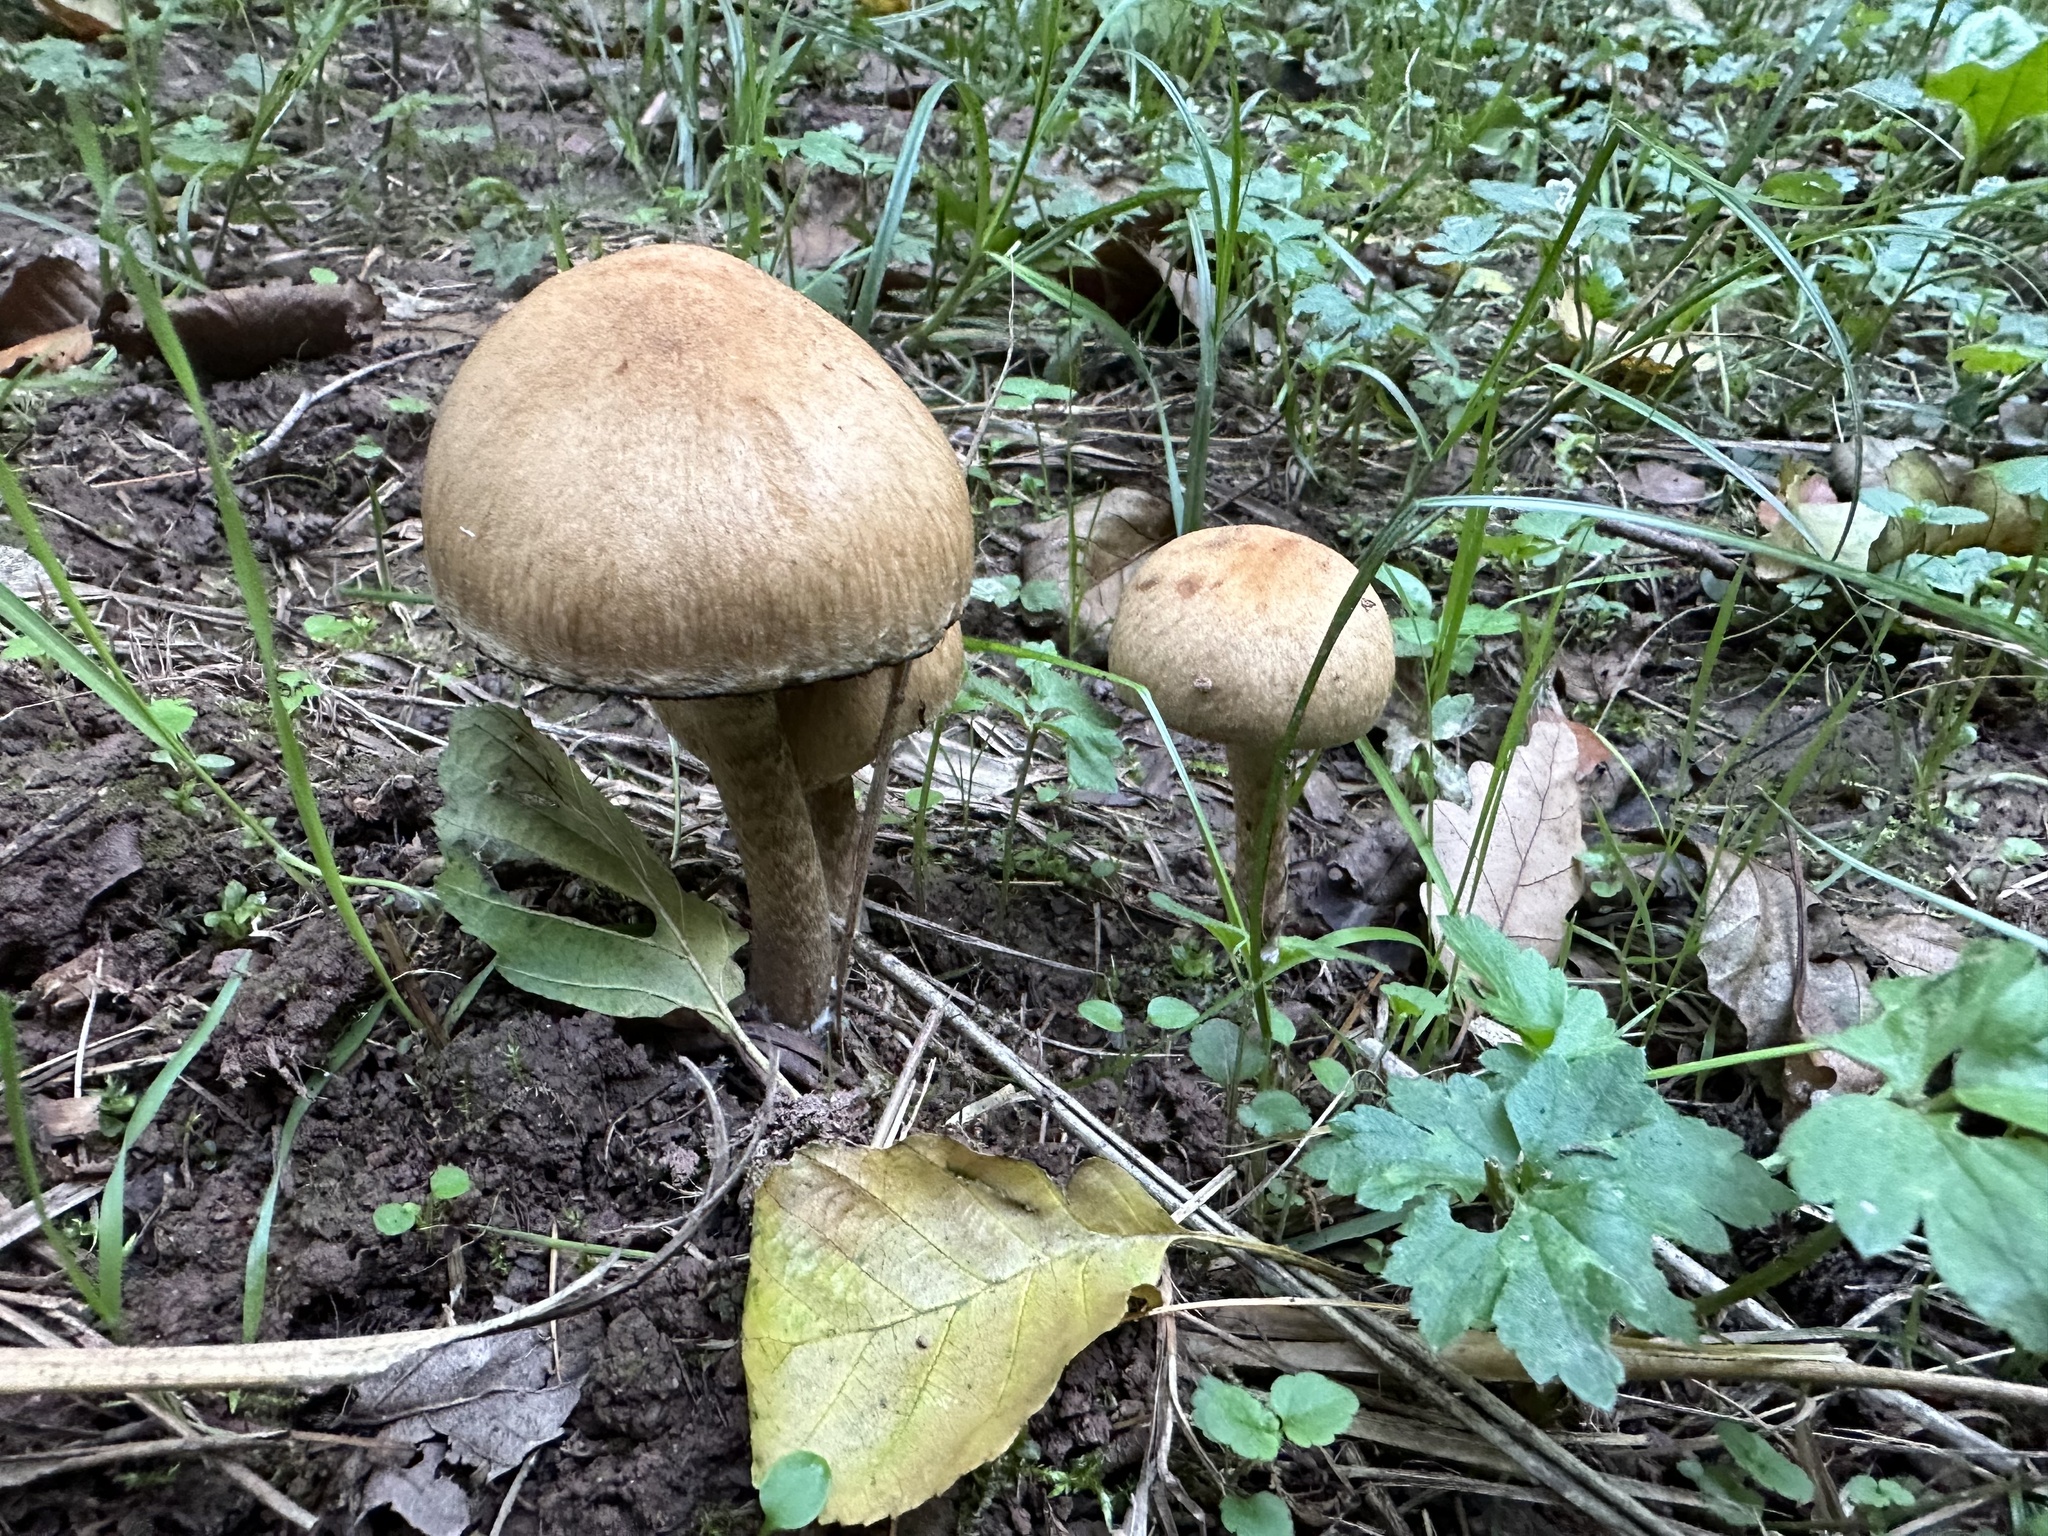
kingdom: Fungi
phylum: Basidiomycota
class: Agaricomycetes
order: Agaricales
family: Psathyrellaceae
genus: Lacrymaria
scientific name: Lacrymaria lacrymabunda
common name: Weeping widow
